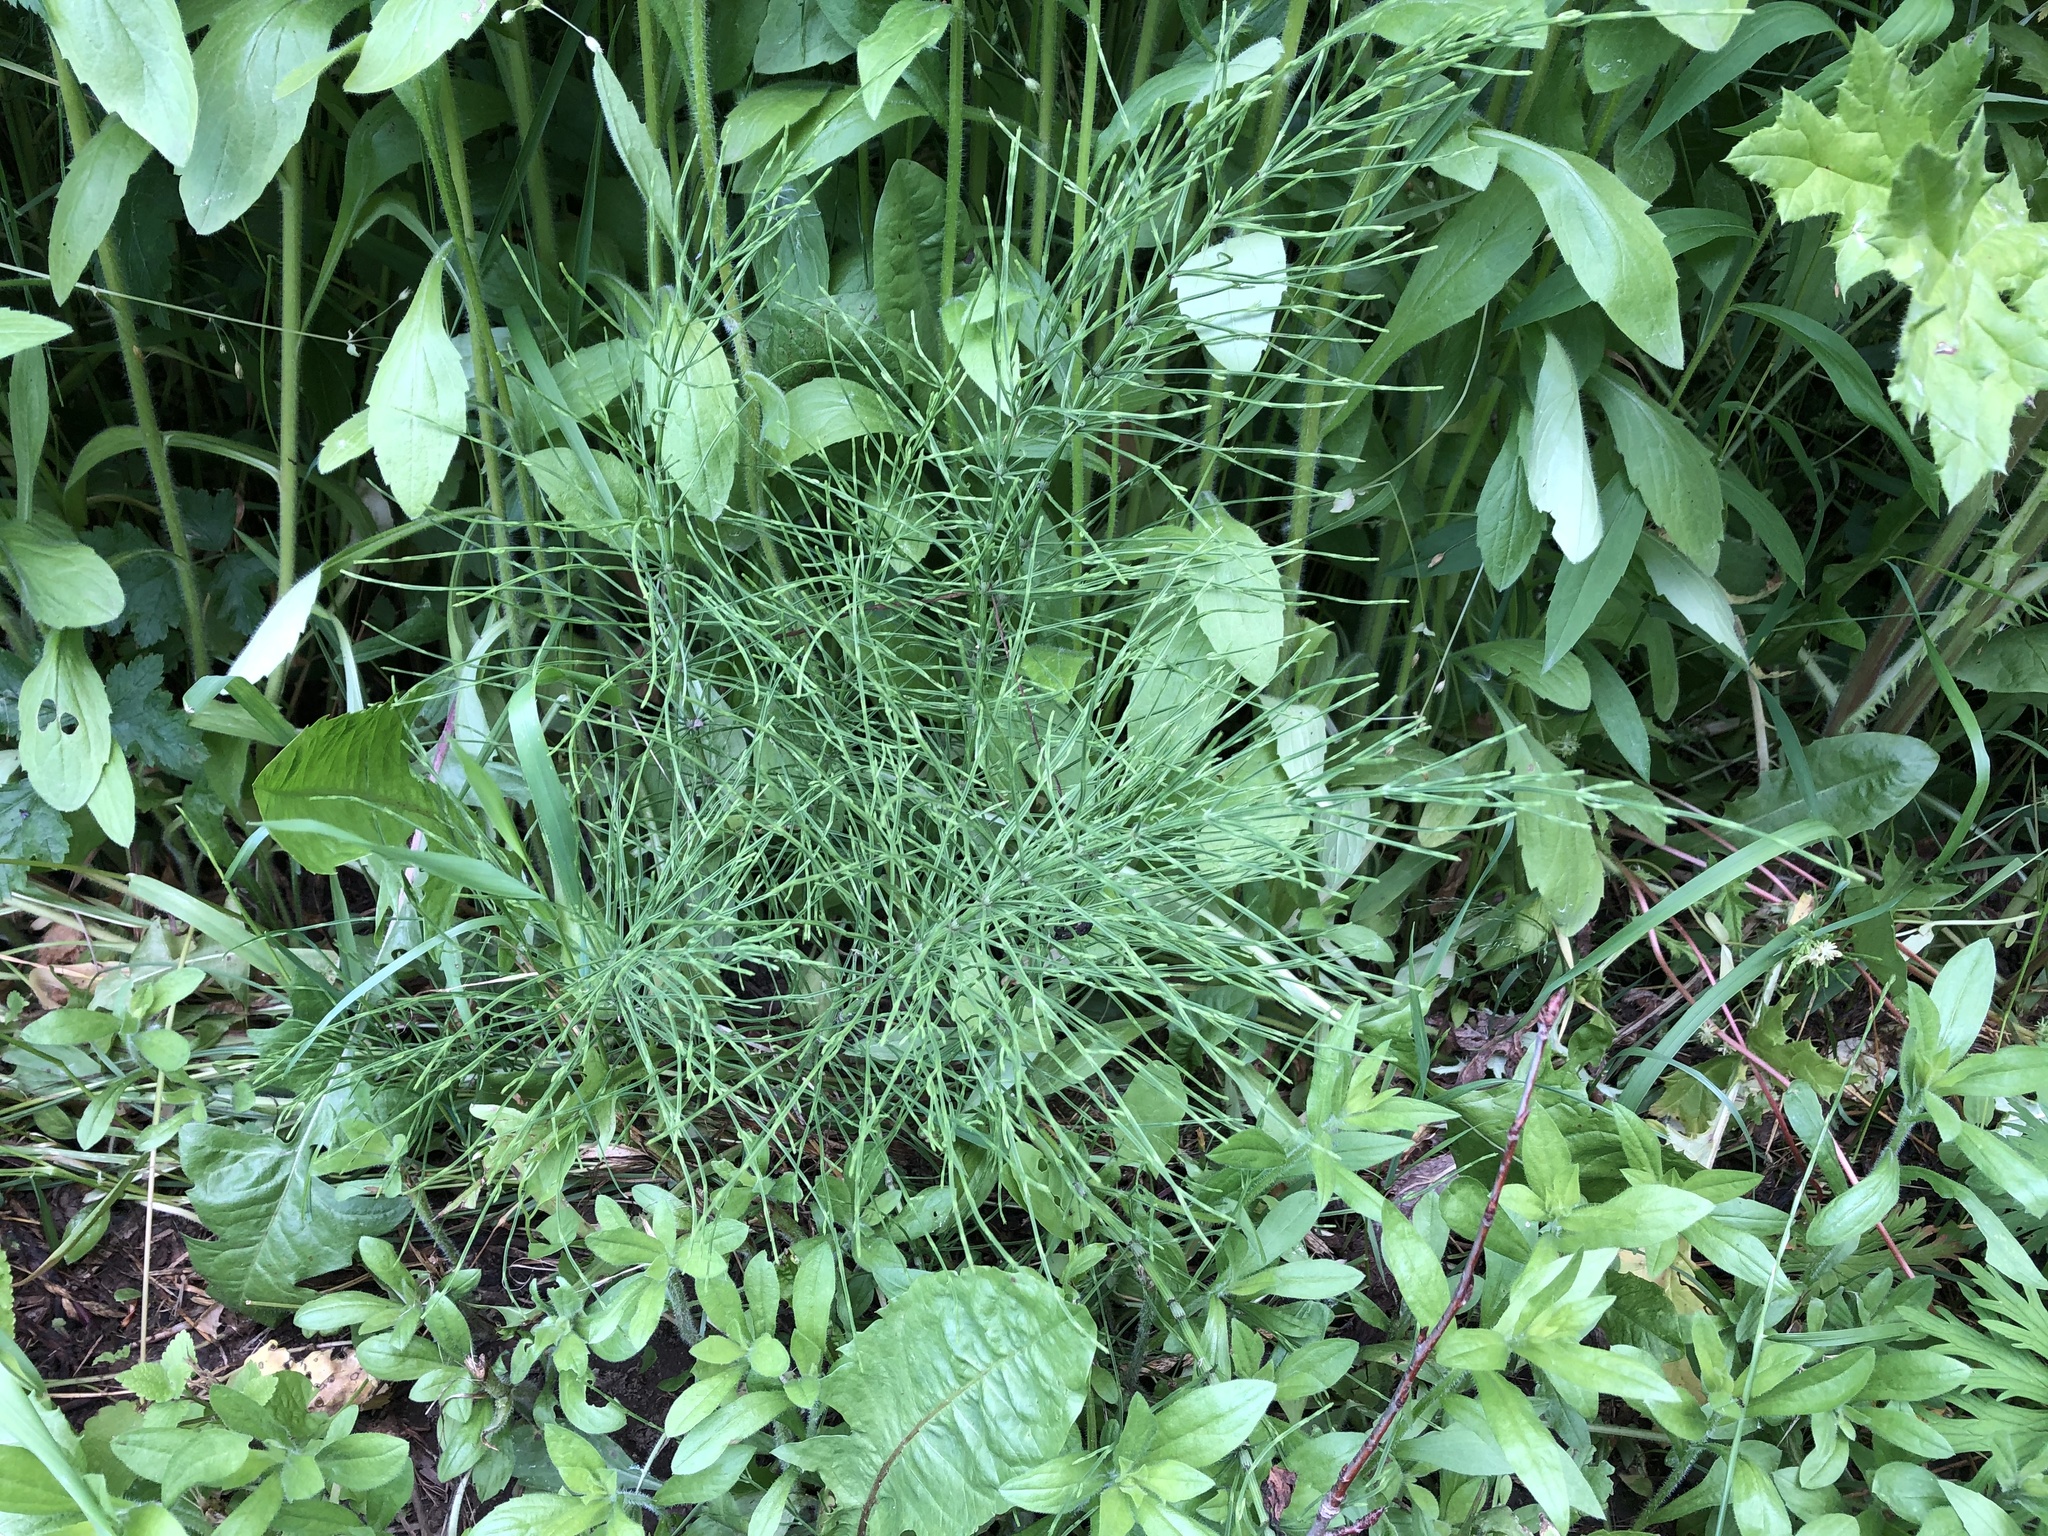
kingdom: Plantae
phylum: Tracheophyta
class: Polypodiopsida
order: Equisetales
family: Equisetaceae
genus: Equisetum
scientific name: Equisetum arvense
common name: Field horsetail
